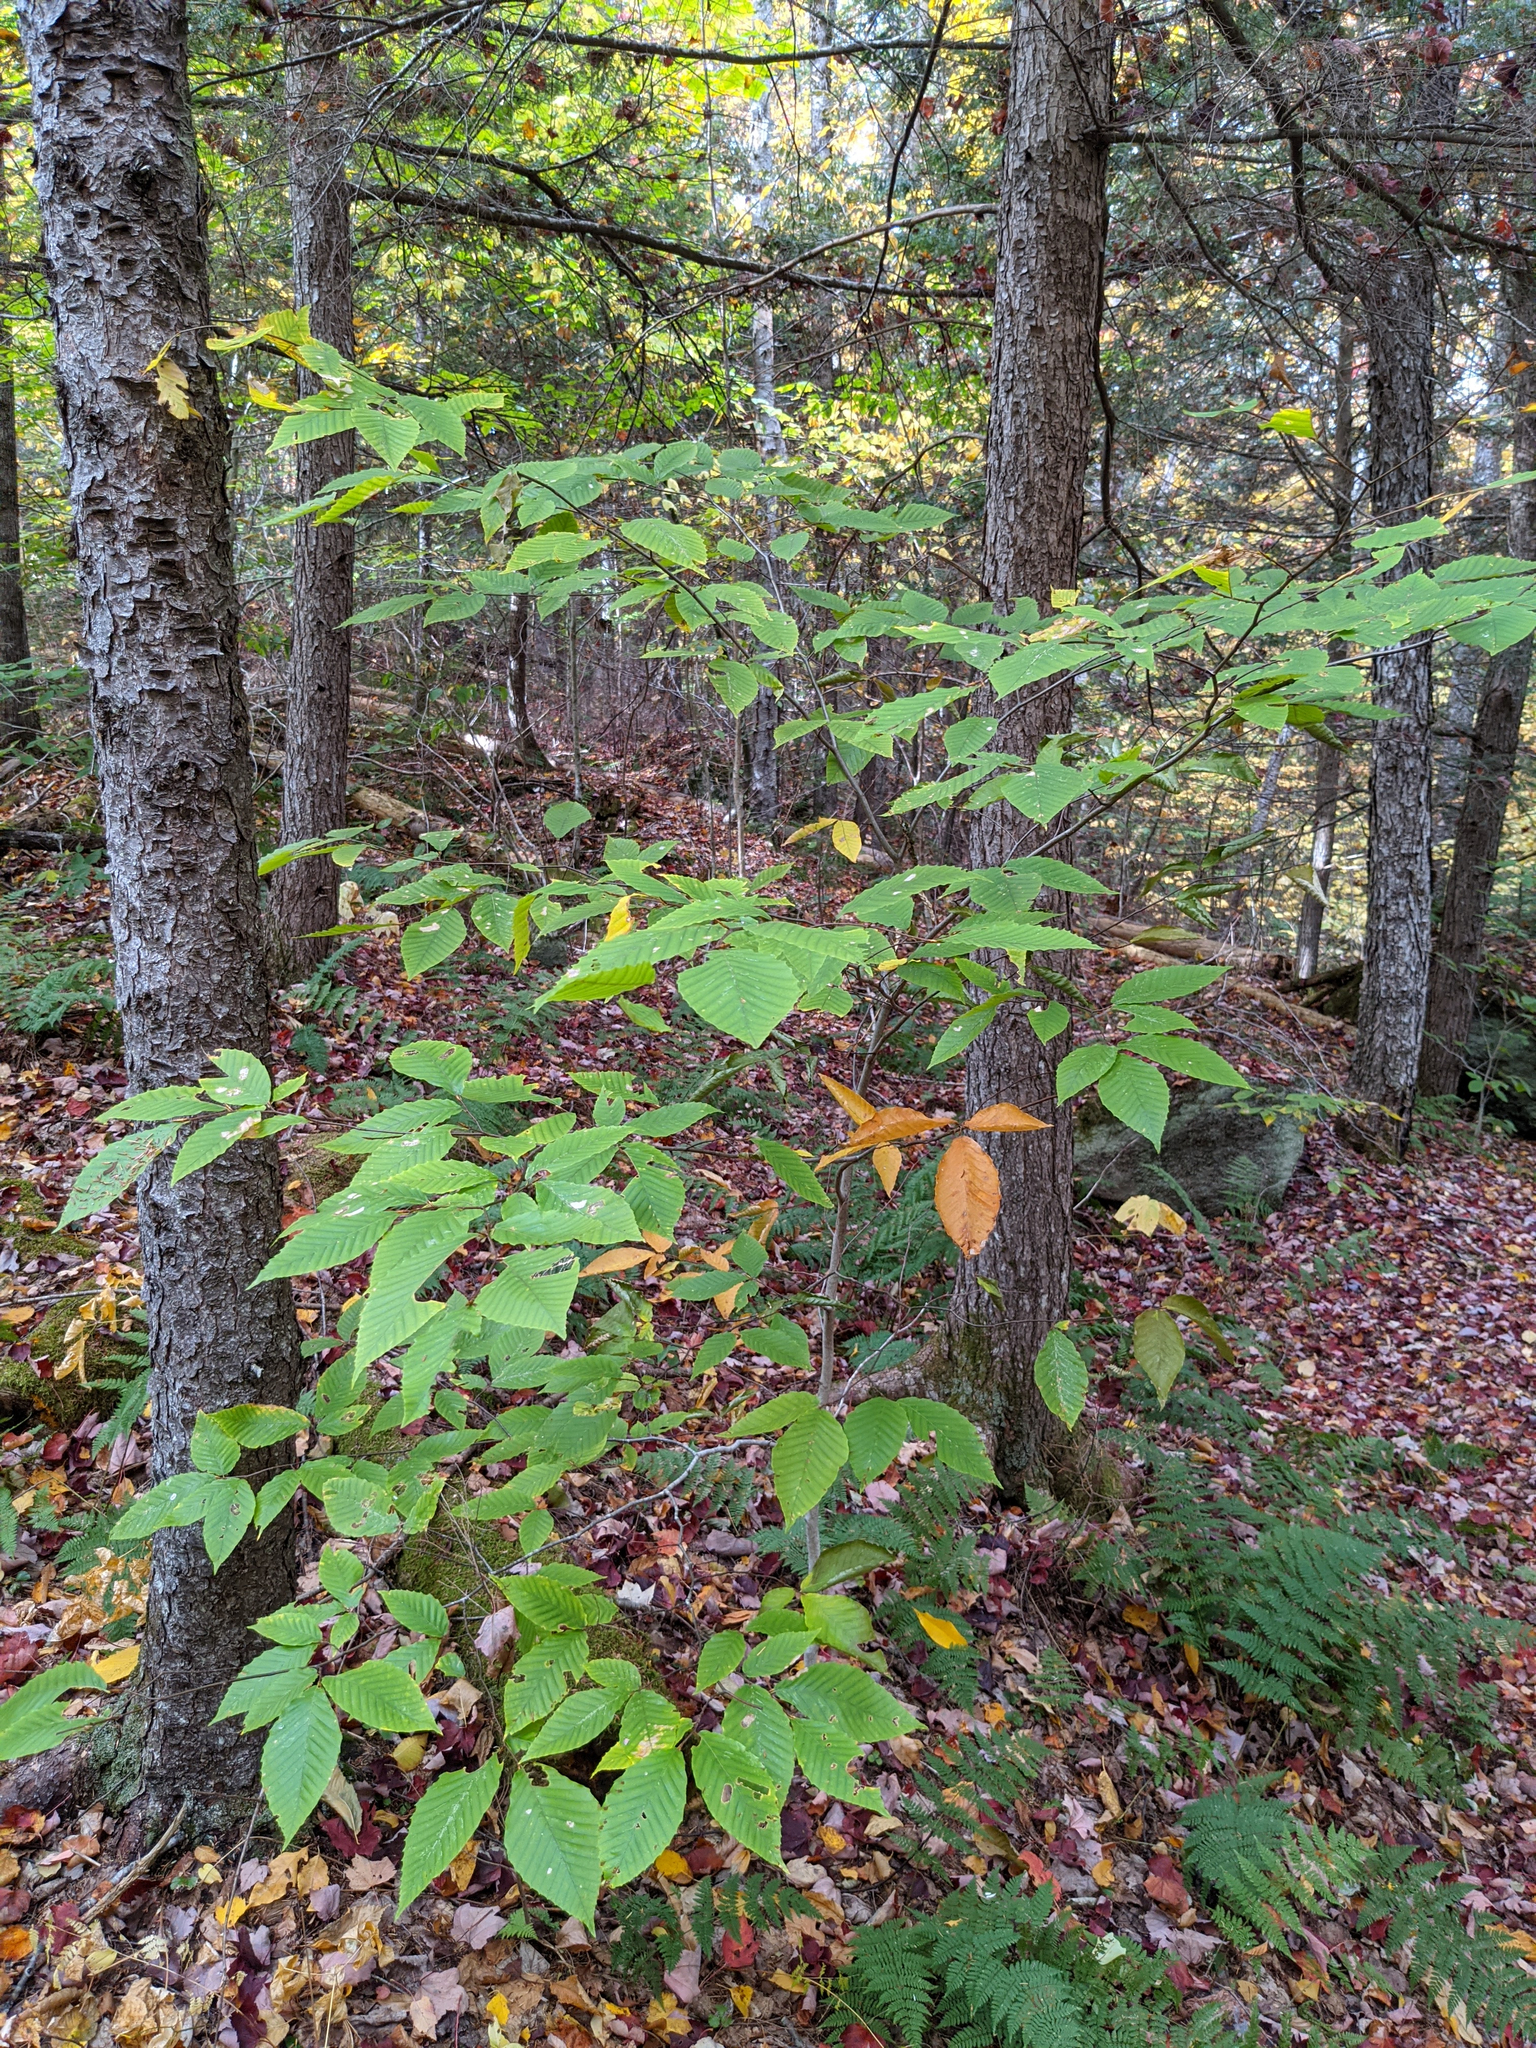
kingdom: Plantae
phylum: Tracheophyta
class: Magnoliopsida
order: Fagales
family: Fagaceae
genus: Fagus
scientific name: Fagus grandifolia
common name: American beech
